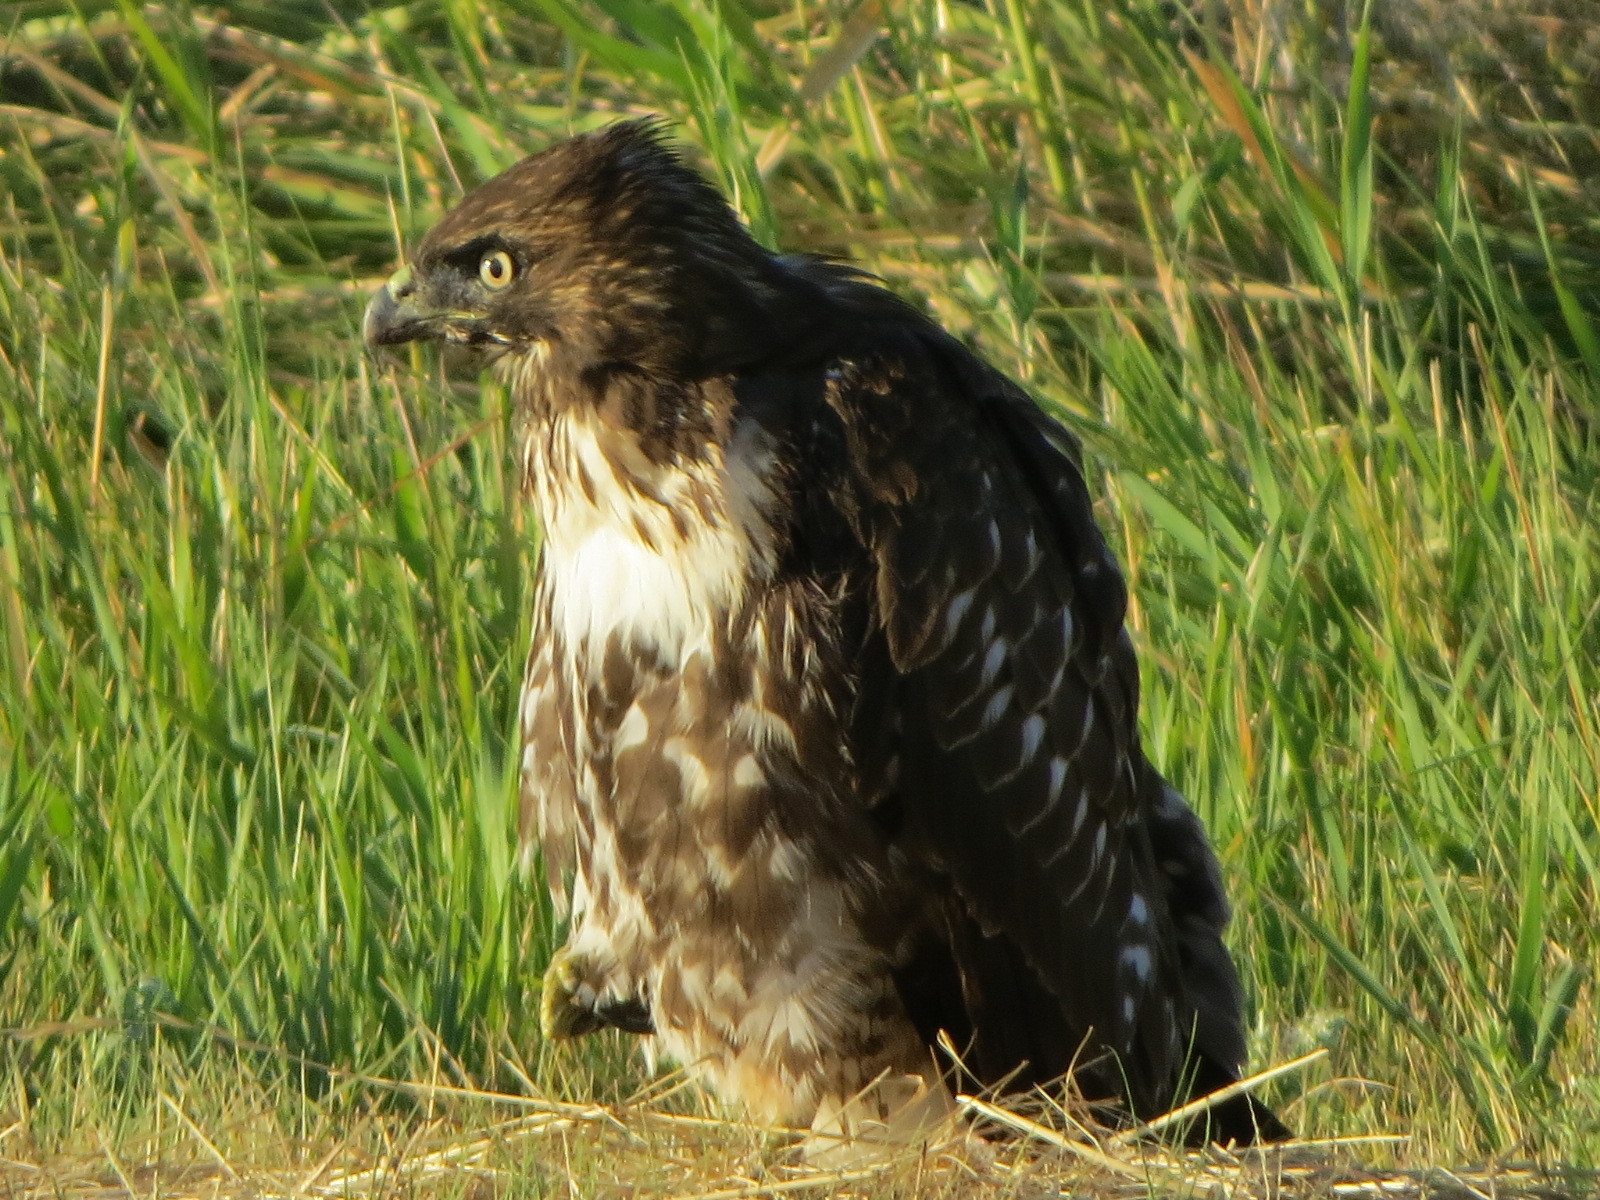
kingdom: Animalia
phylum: Chordata
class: Aves
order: Accipitriformes
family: Accipitridae
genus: Buteo
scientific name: Buteo jamaicensis
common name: Red-tailed hawk
